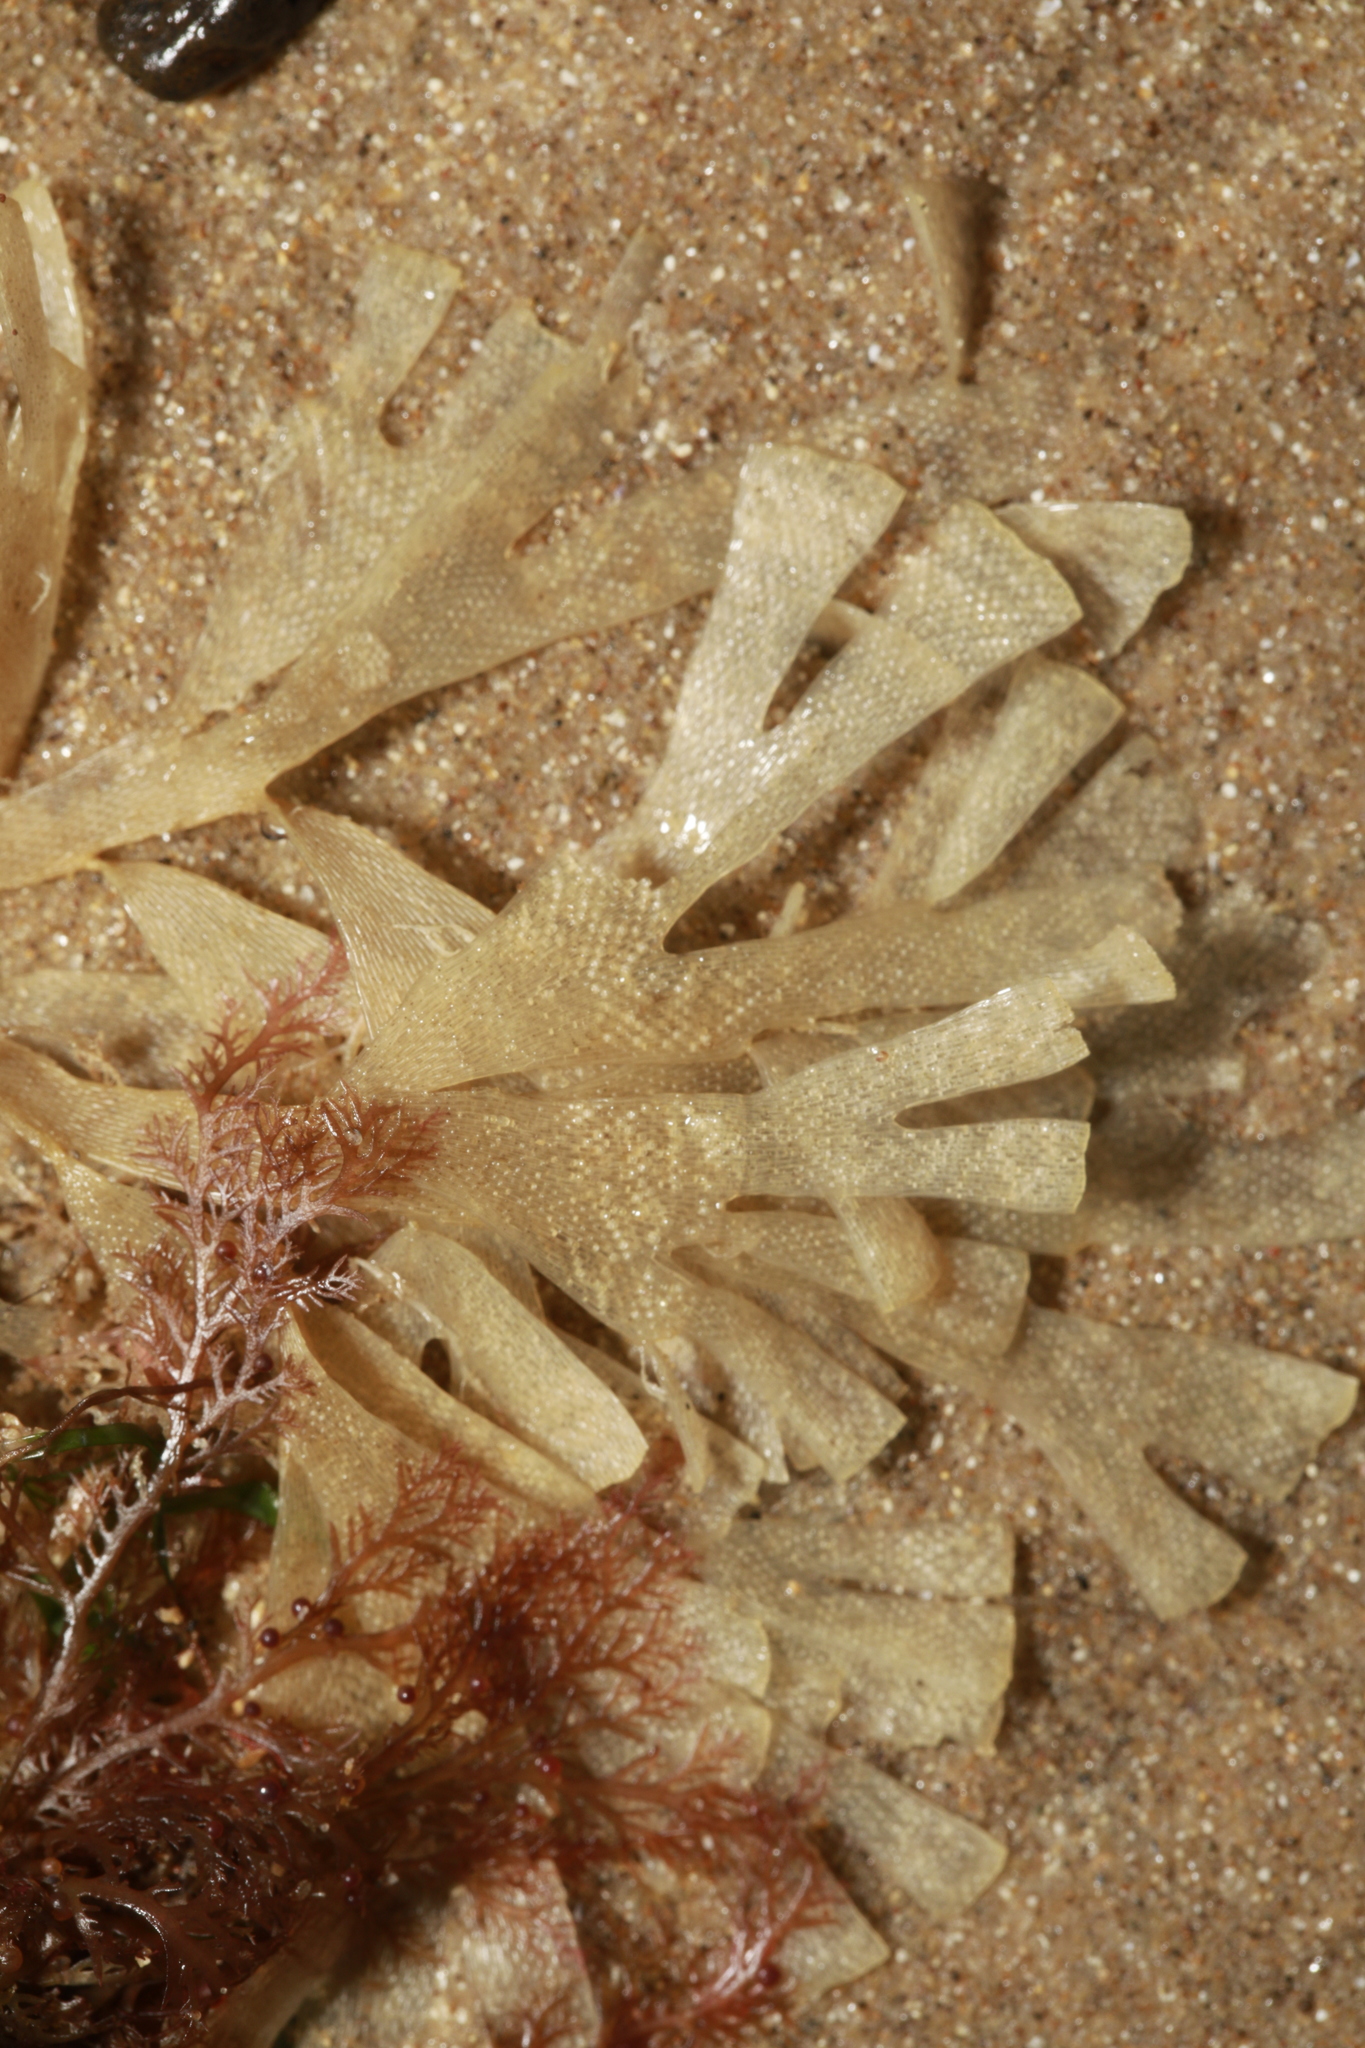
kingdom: Animalia
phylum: Bryozoa
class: Gymnolaemata
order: Cheilostomatida
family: Flustridae
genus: Flustra
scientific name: Flustra foliacea
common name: Hornwrack
